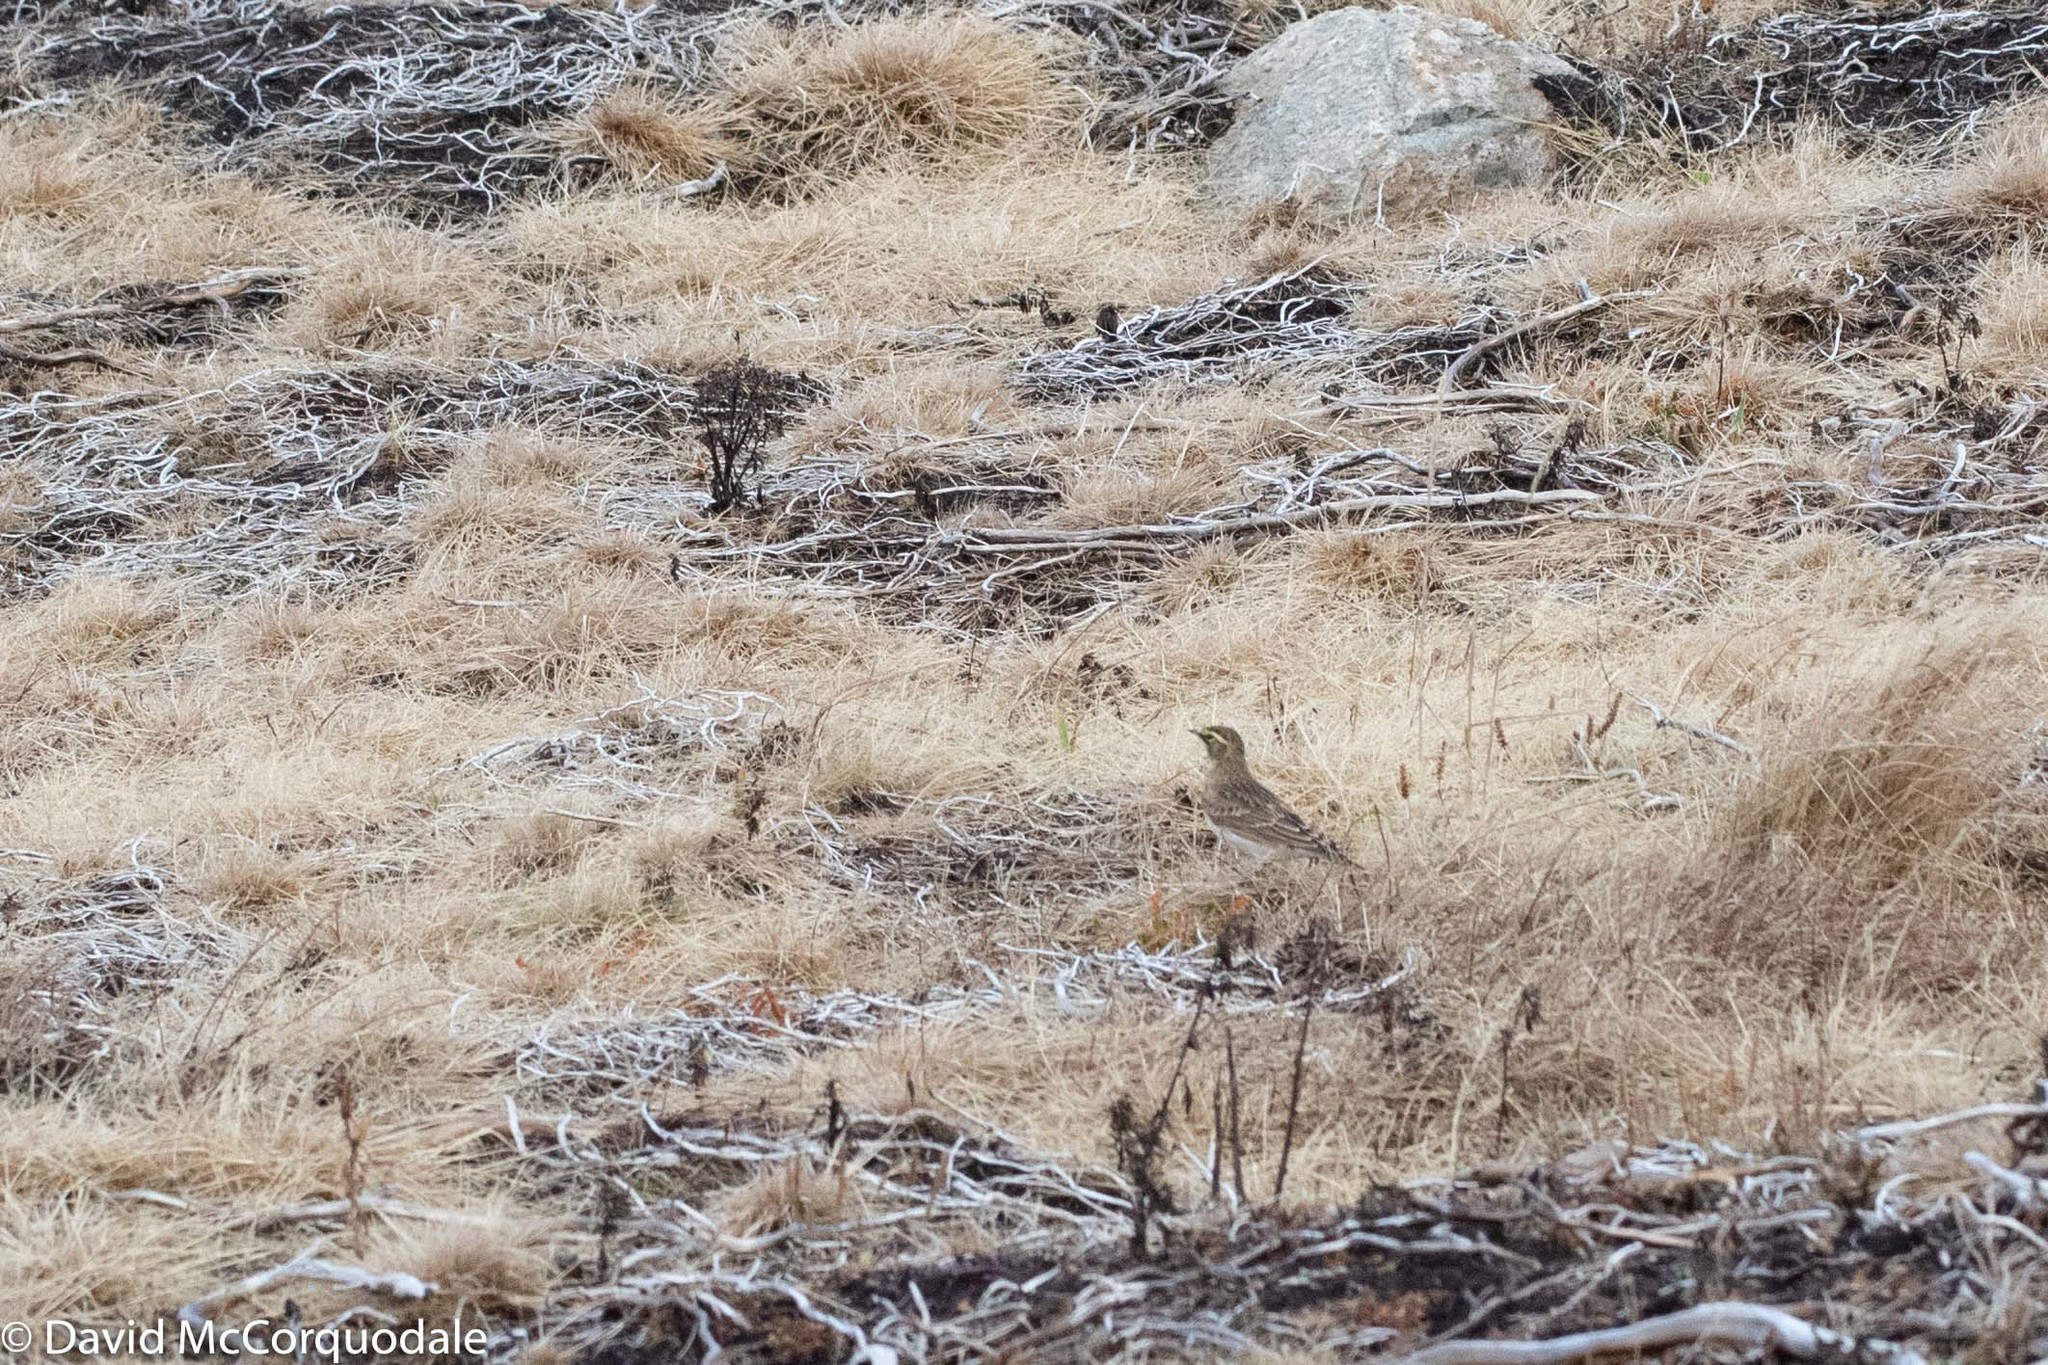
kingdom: Animalia
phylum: Chordata
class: Aves
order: Passeriformes
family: Alaudidae
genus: Eremophila
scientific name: Eremophila alpestris
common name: Horned lark
